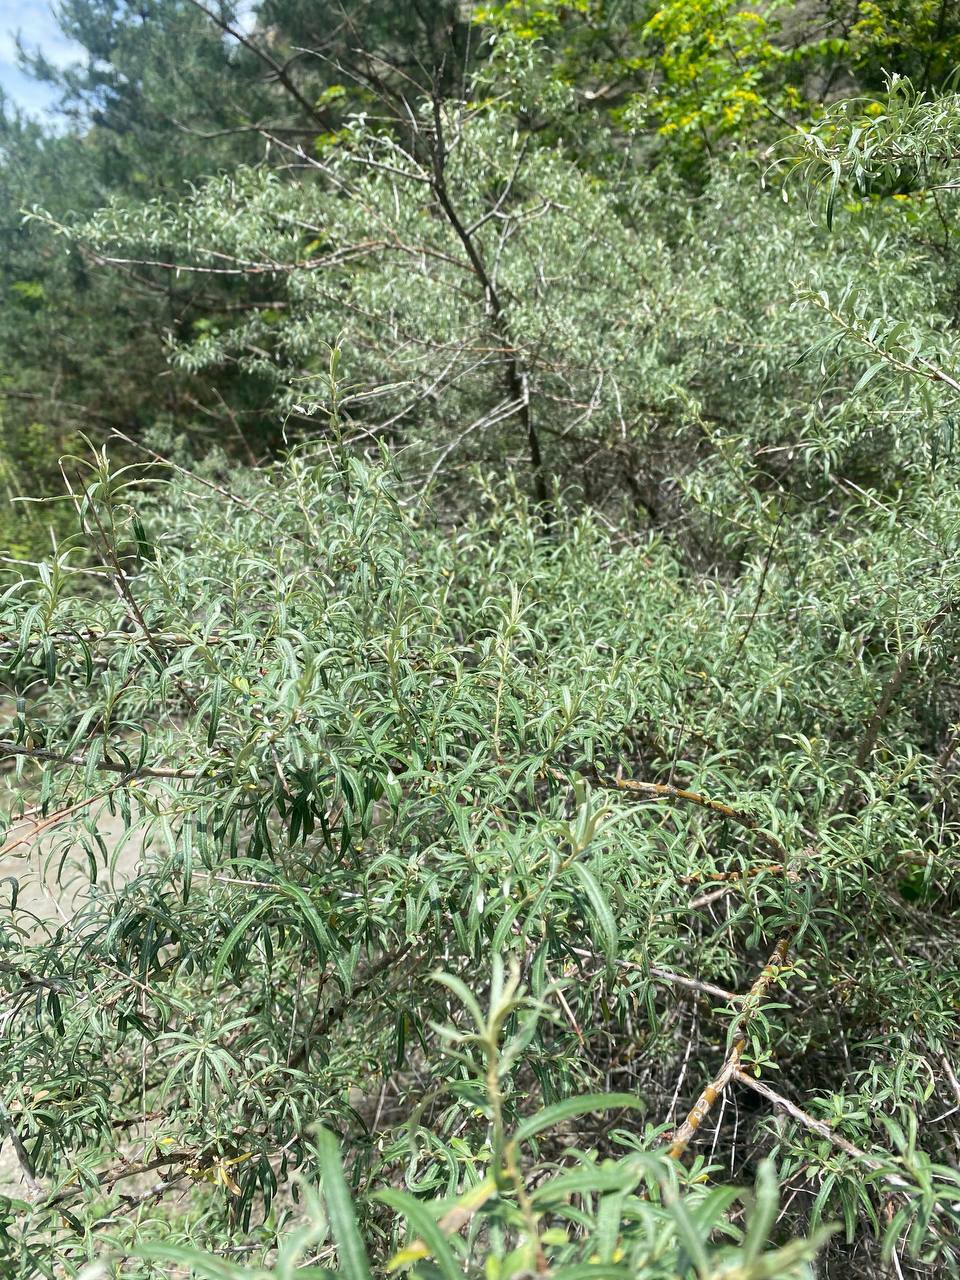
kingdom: Plantae
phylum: Tracheophyta
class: Magnoliopsida
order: Rosales
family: Elaeagnaceae
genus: Hippophae
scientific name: Hippophae rhamnoides
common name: Sea-buckthorn
